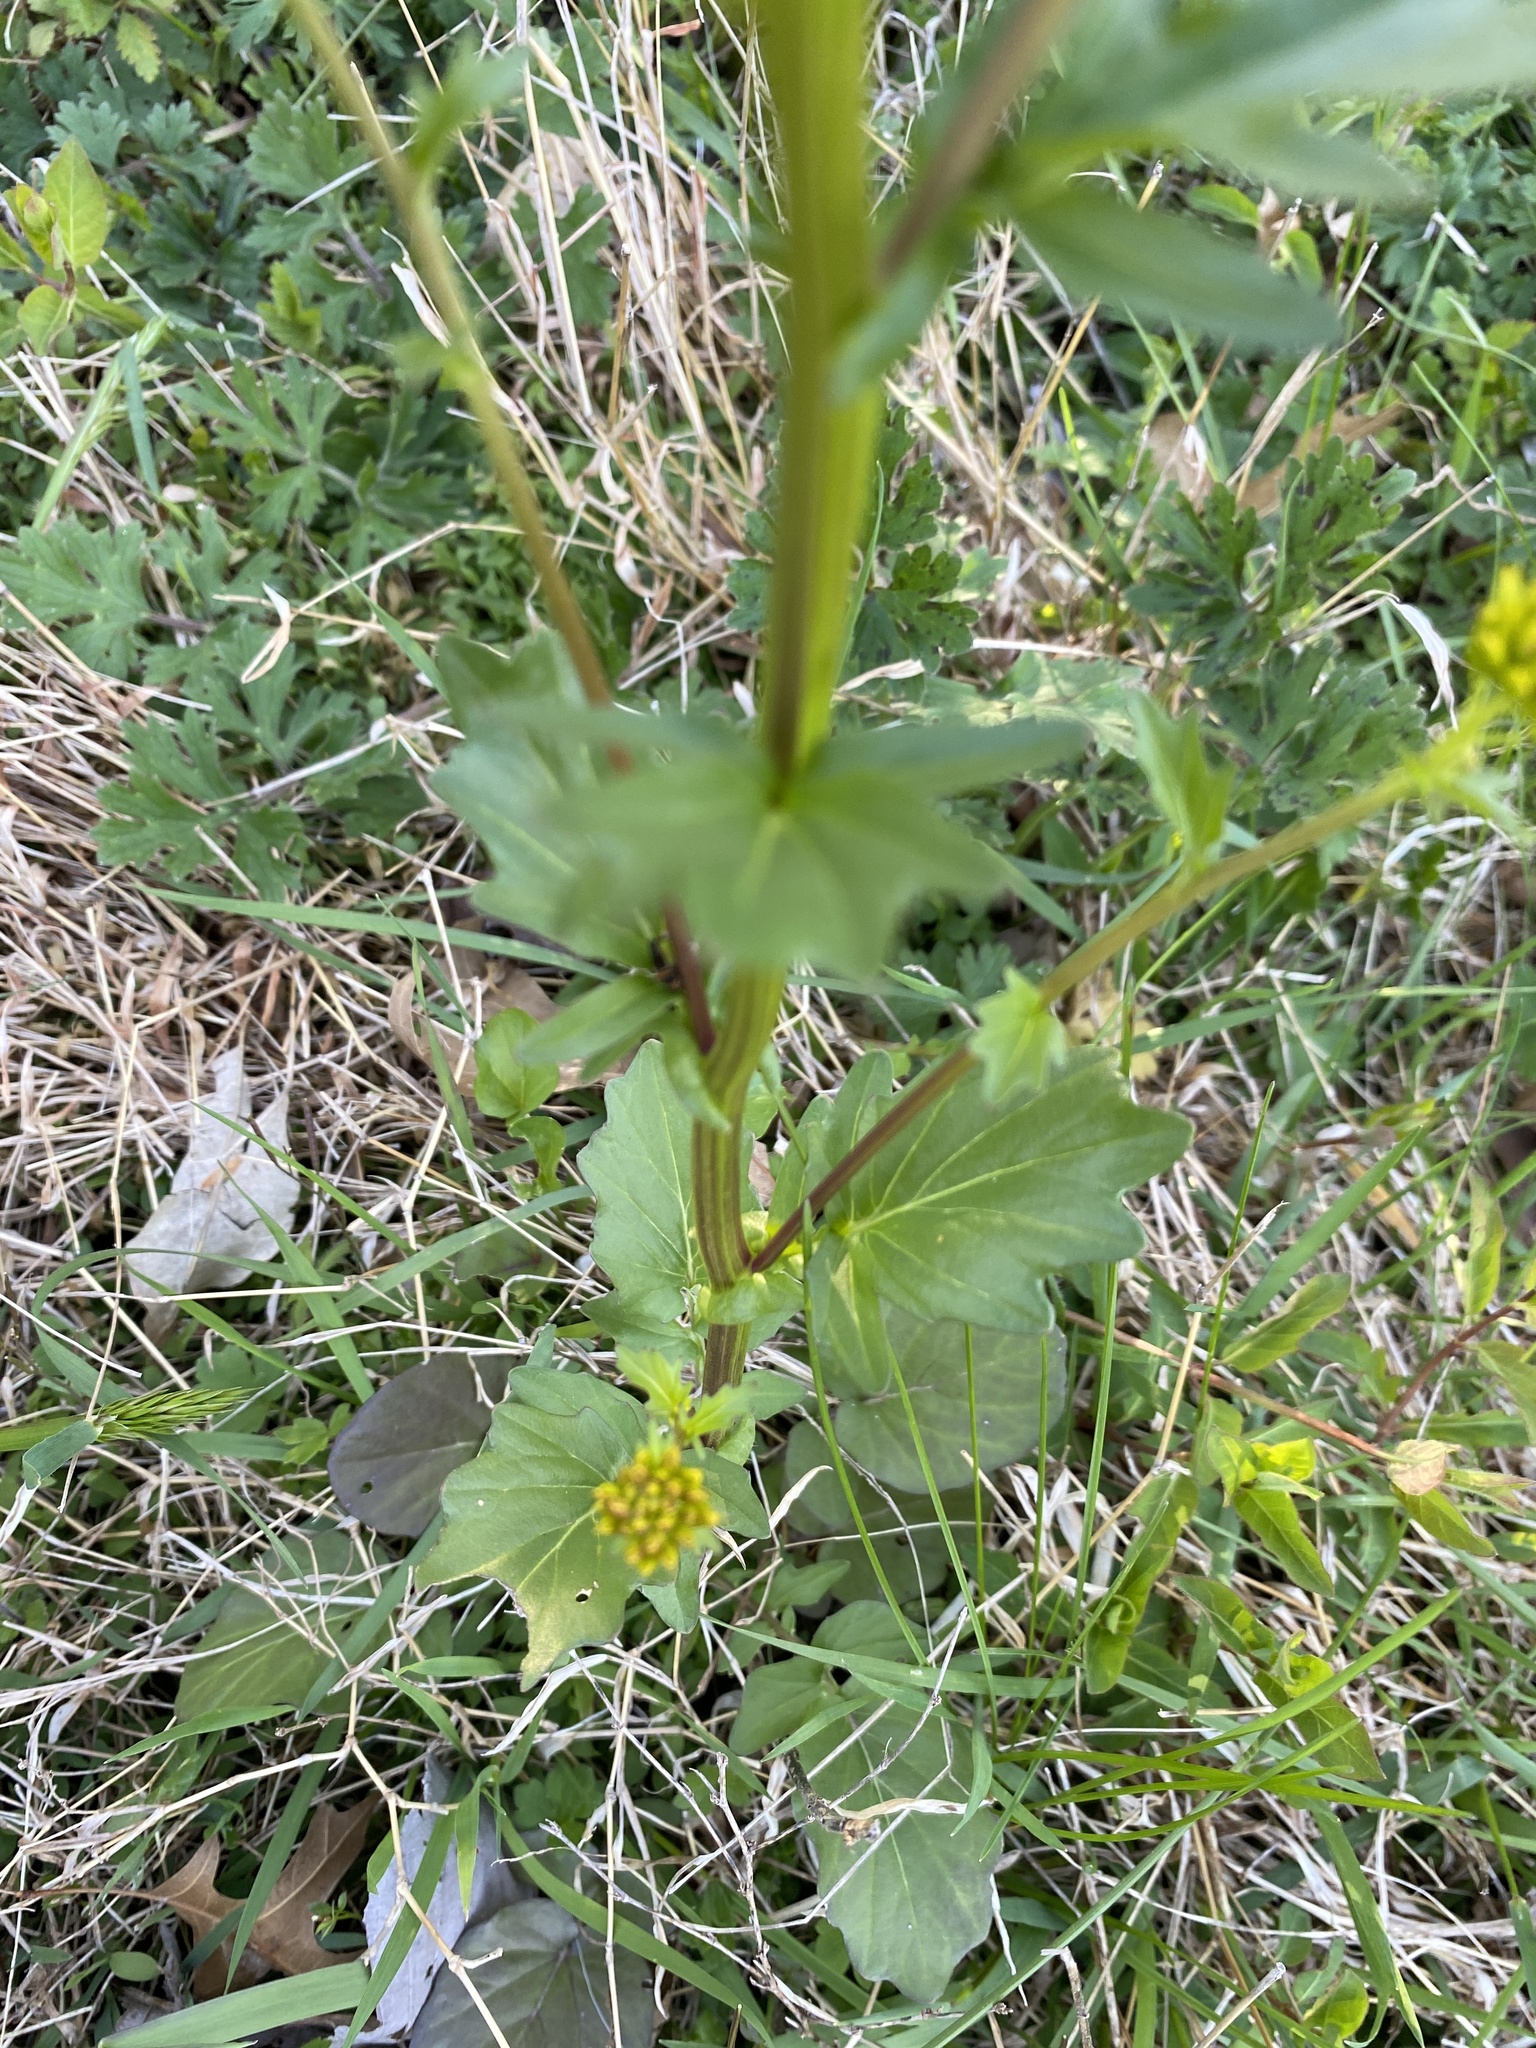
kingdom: Plantae
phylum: Tracheophyta
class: Magnoliopsida
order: Brassicales
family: Brassicaceae
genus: Barbarea
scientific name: Barbarea vulgaris
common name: Cressy-greens
